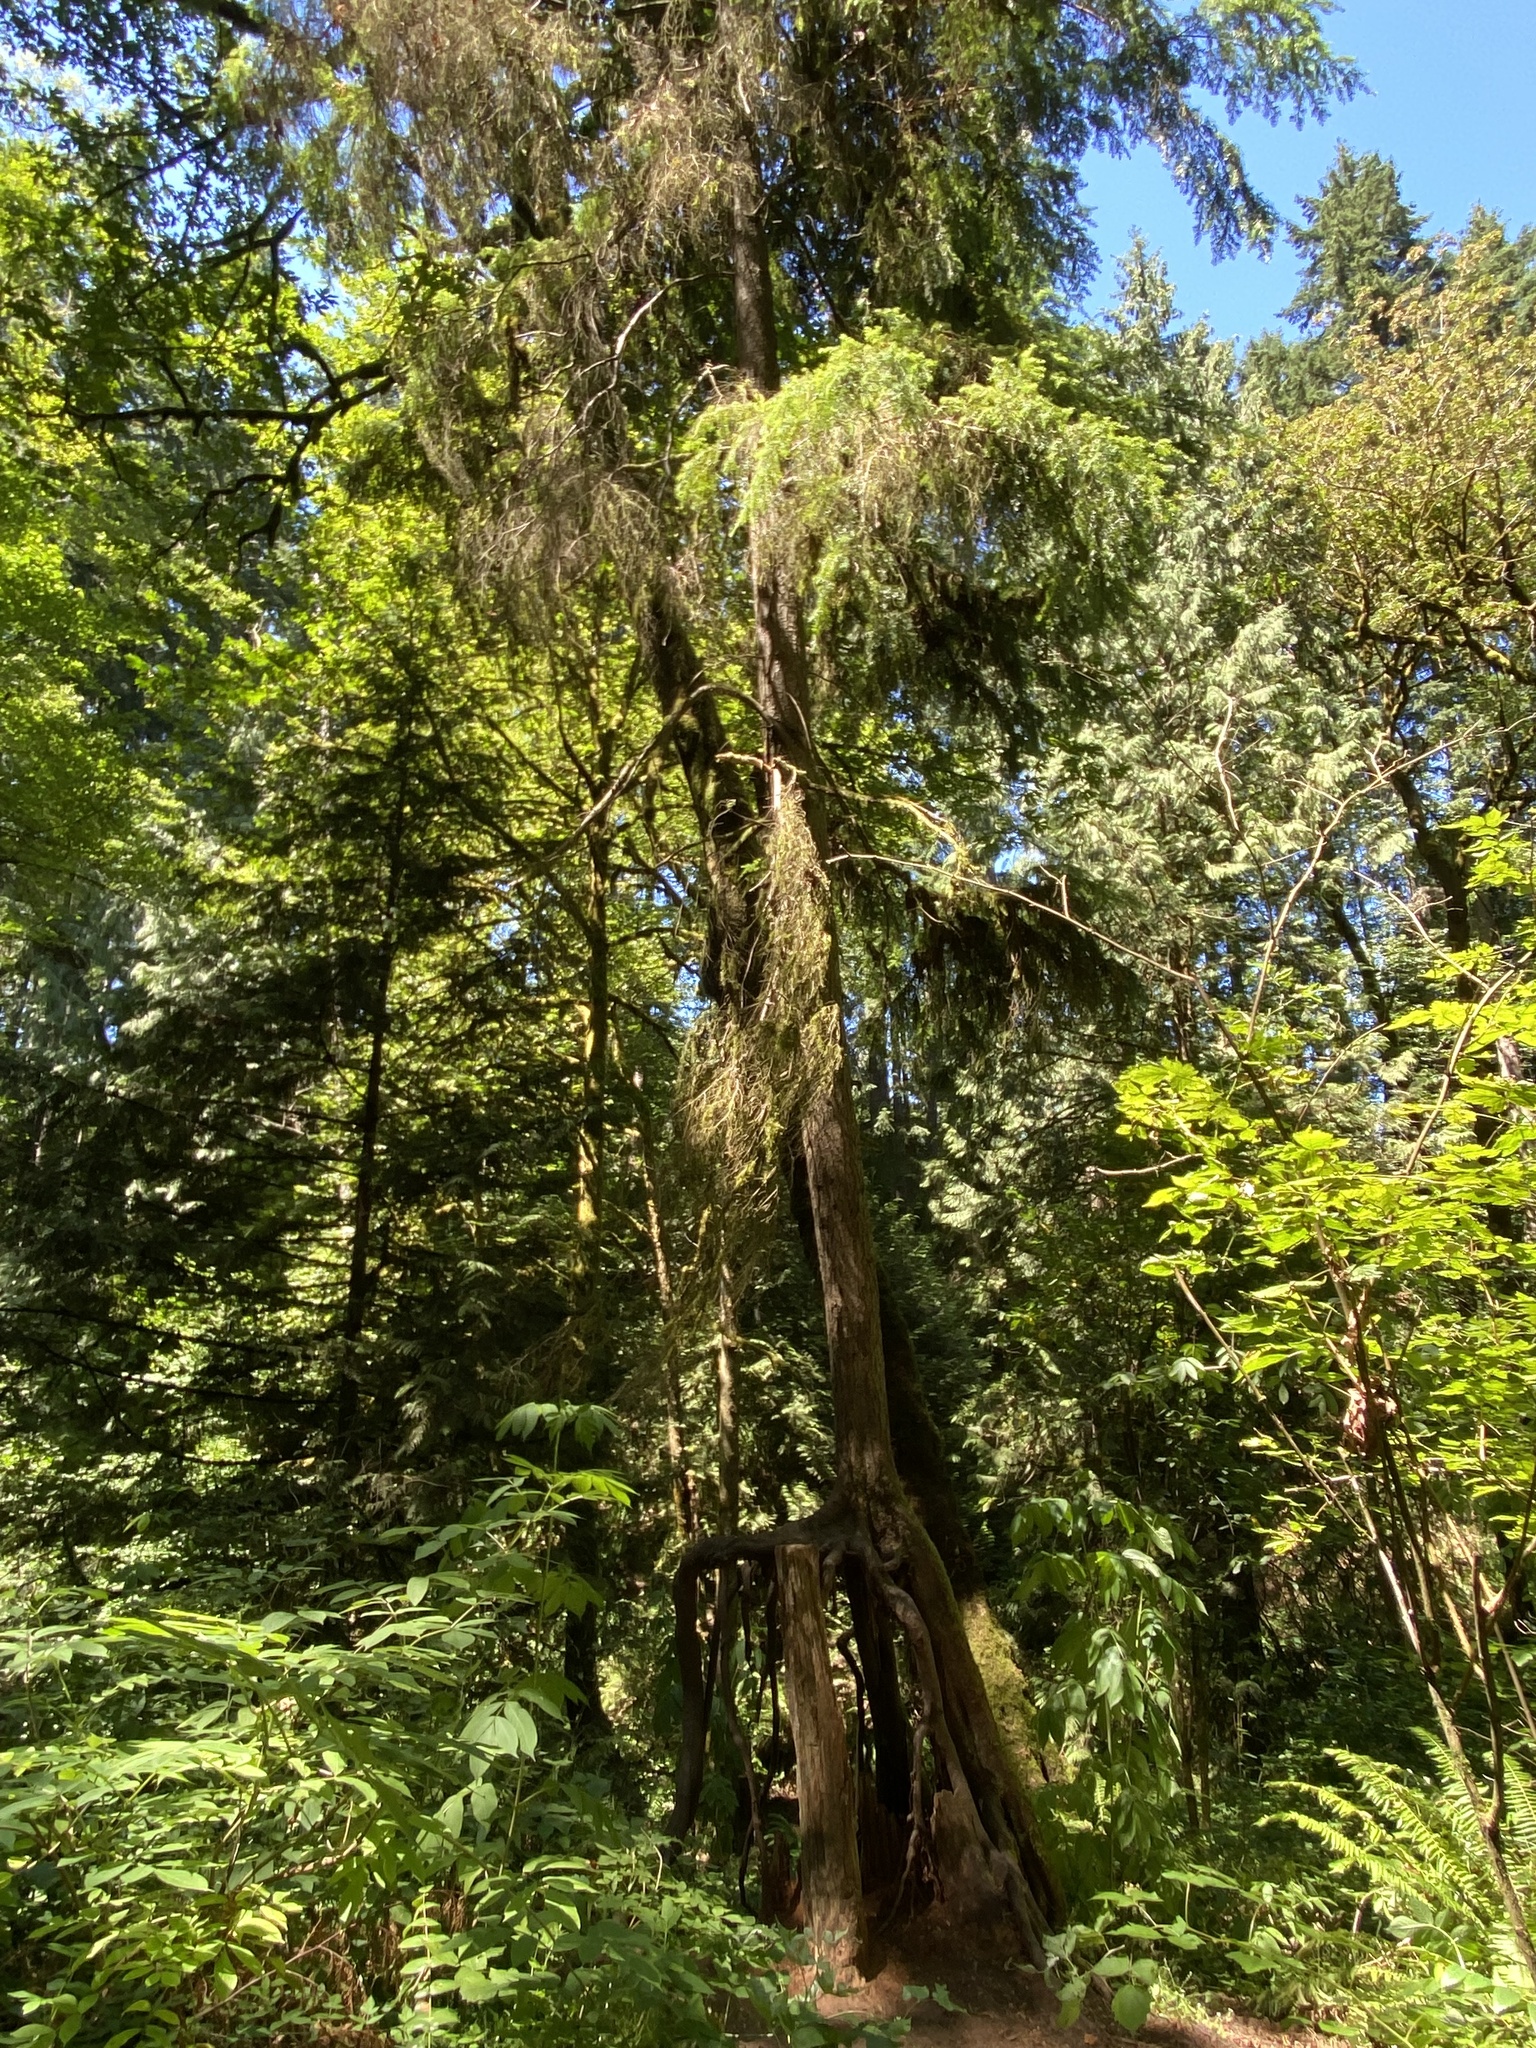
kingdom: Plantae
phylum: Tracheophyta
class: Pinopsida
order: Pinales
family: Pinaceae
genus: Tsuga
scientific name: Tsuga heterophylla
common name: Western hemlock
